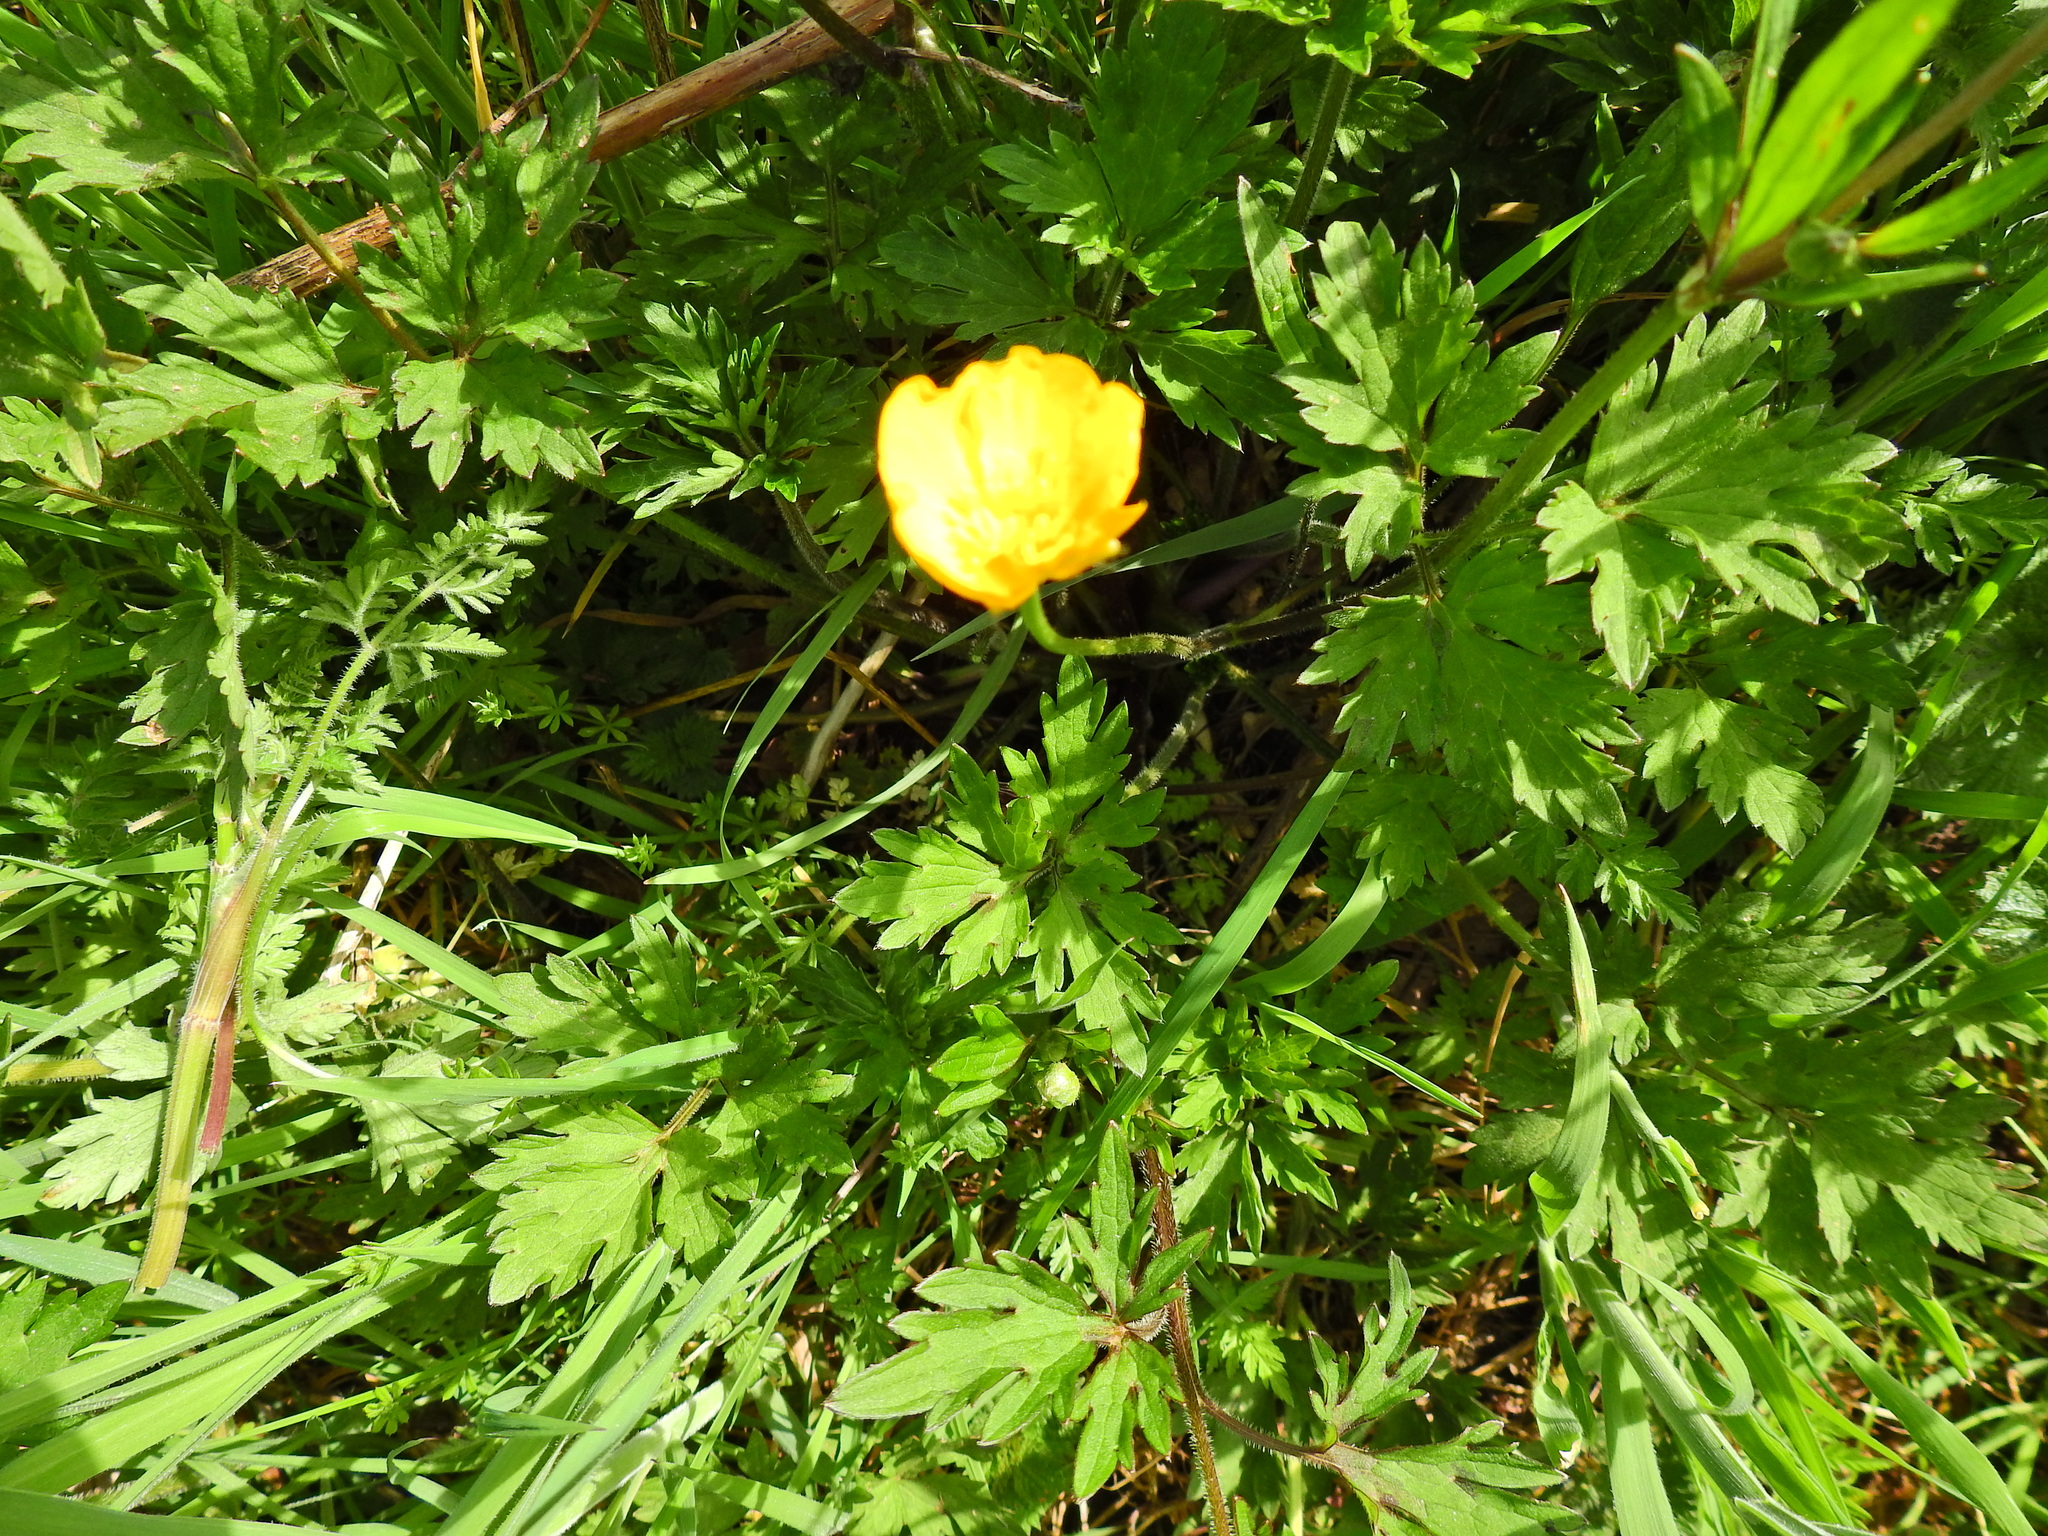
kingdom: Plantae
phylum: Tracheophyta
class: Magnoliopsida
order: Ranunculales
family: Ranunculaceae
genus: Ranunculus
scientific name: Ranunculus repens
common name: Creeping buttercup
